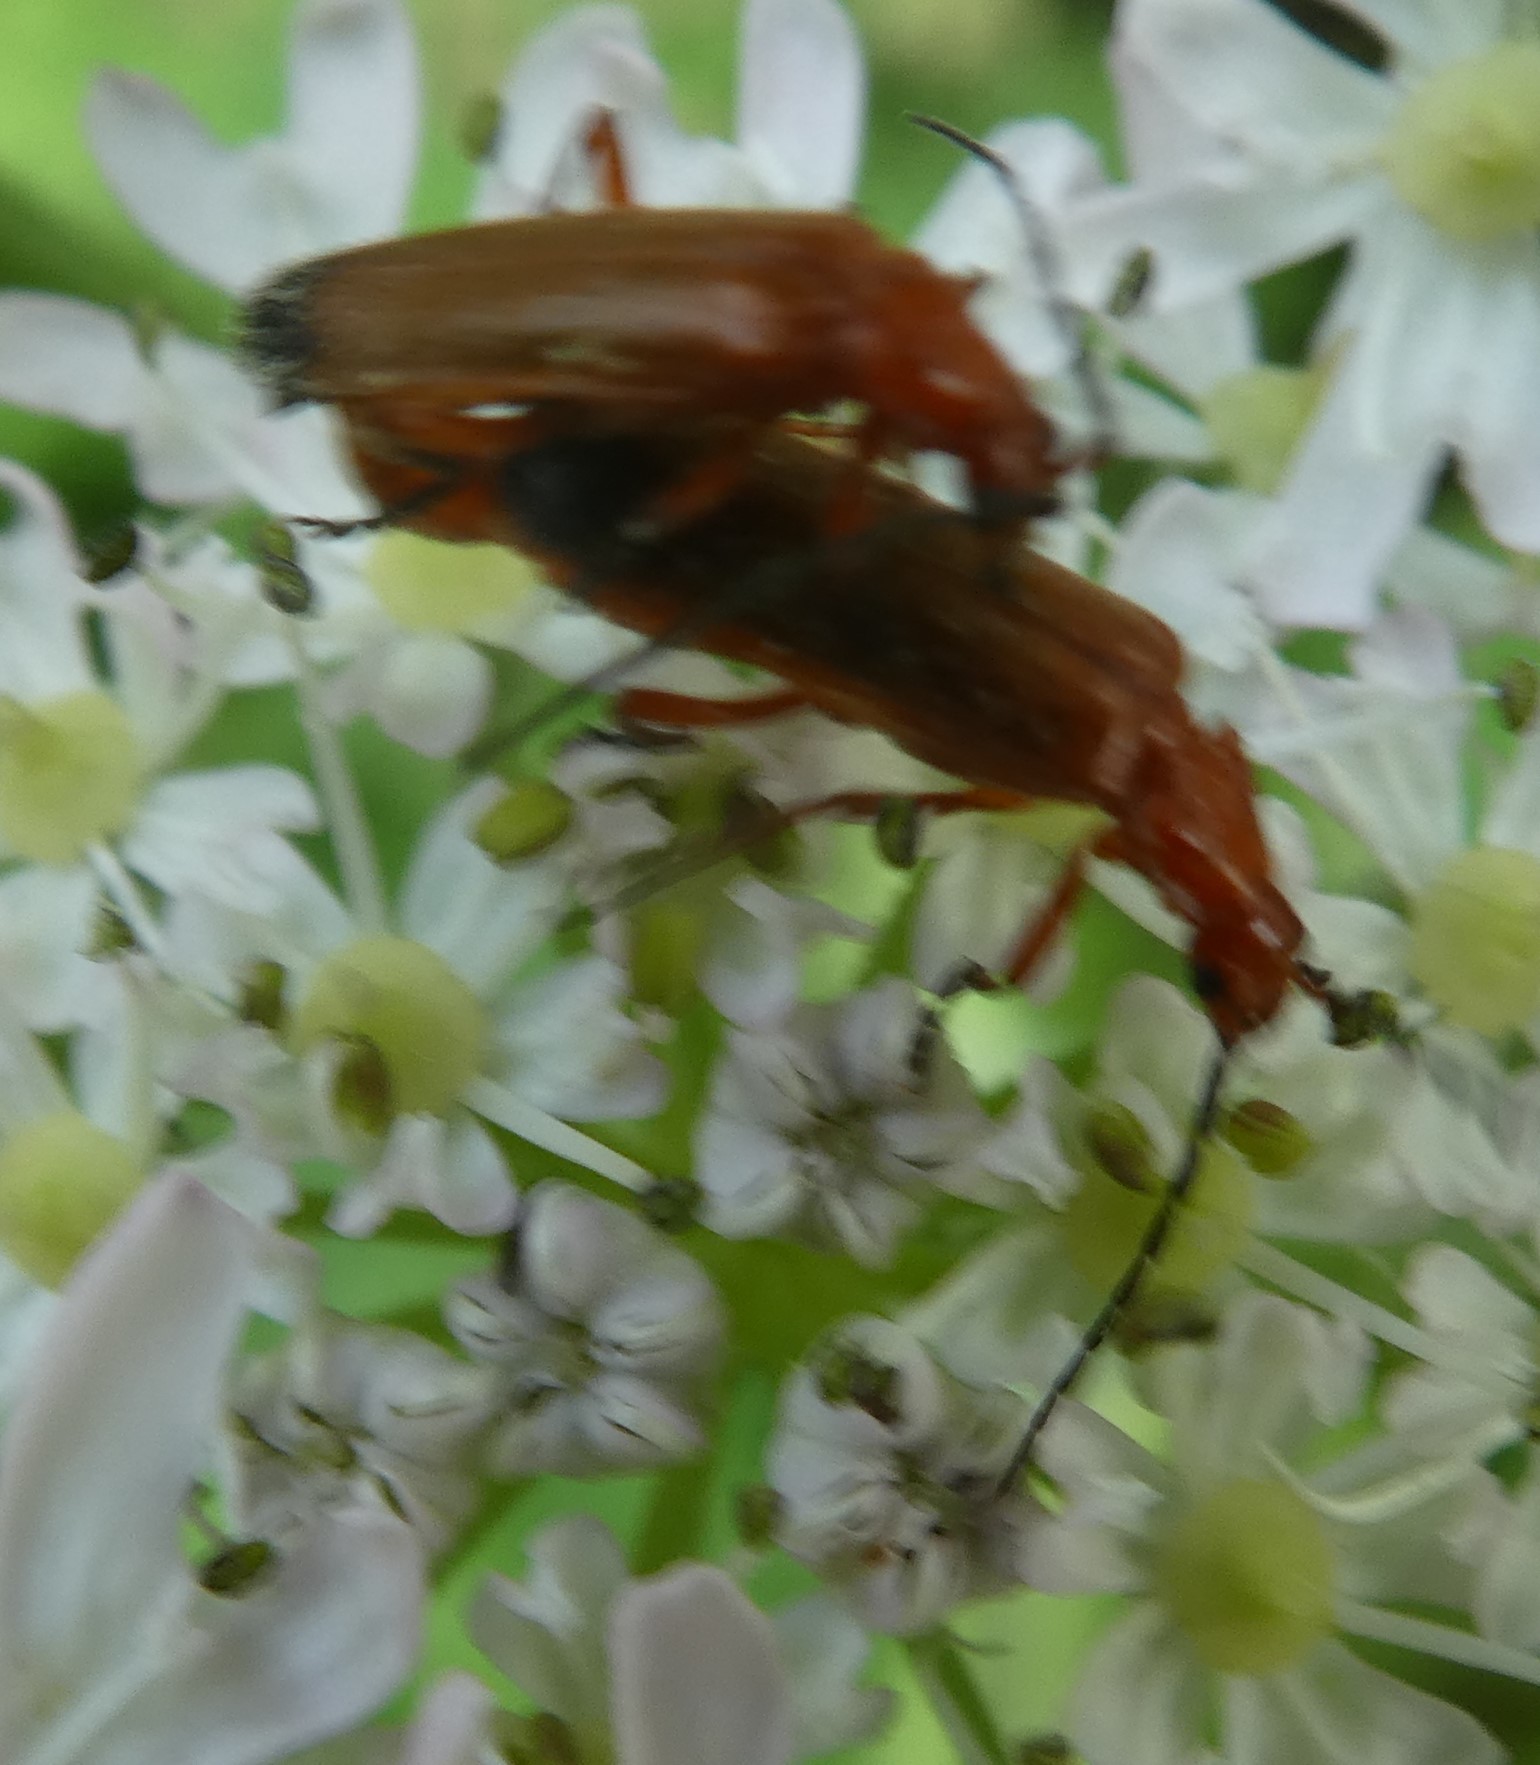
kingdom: Animalia
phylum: Arthropoda
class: Insecta
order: Coleoptera
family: Cantharidae
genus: Rhagonycha
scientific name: Rhagonycha fulva
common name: Common red soldier beetle
